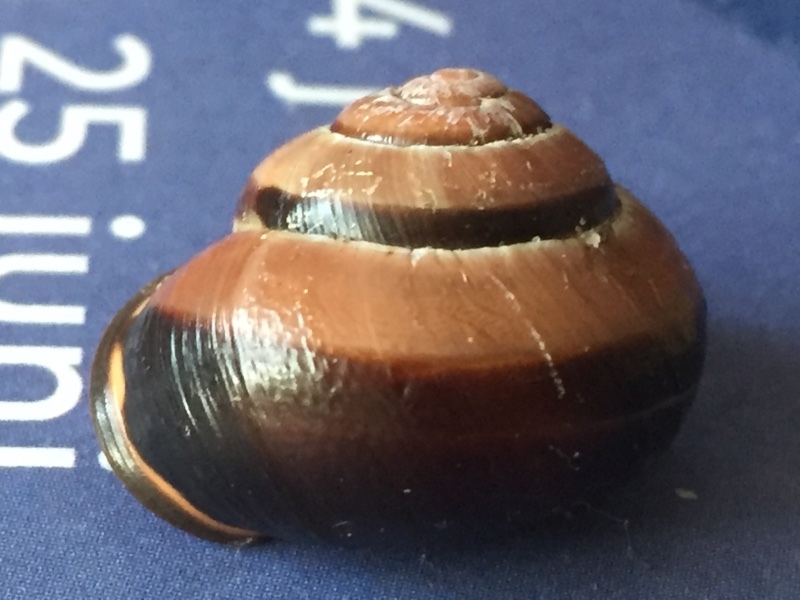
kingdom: Animalia
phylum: Mollusca
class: Gastropoda
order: Stylommatophora
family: Helicidae
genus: Cepaea
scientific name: Cepaea nemoralis
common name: Grovesnail
